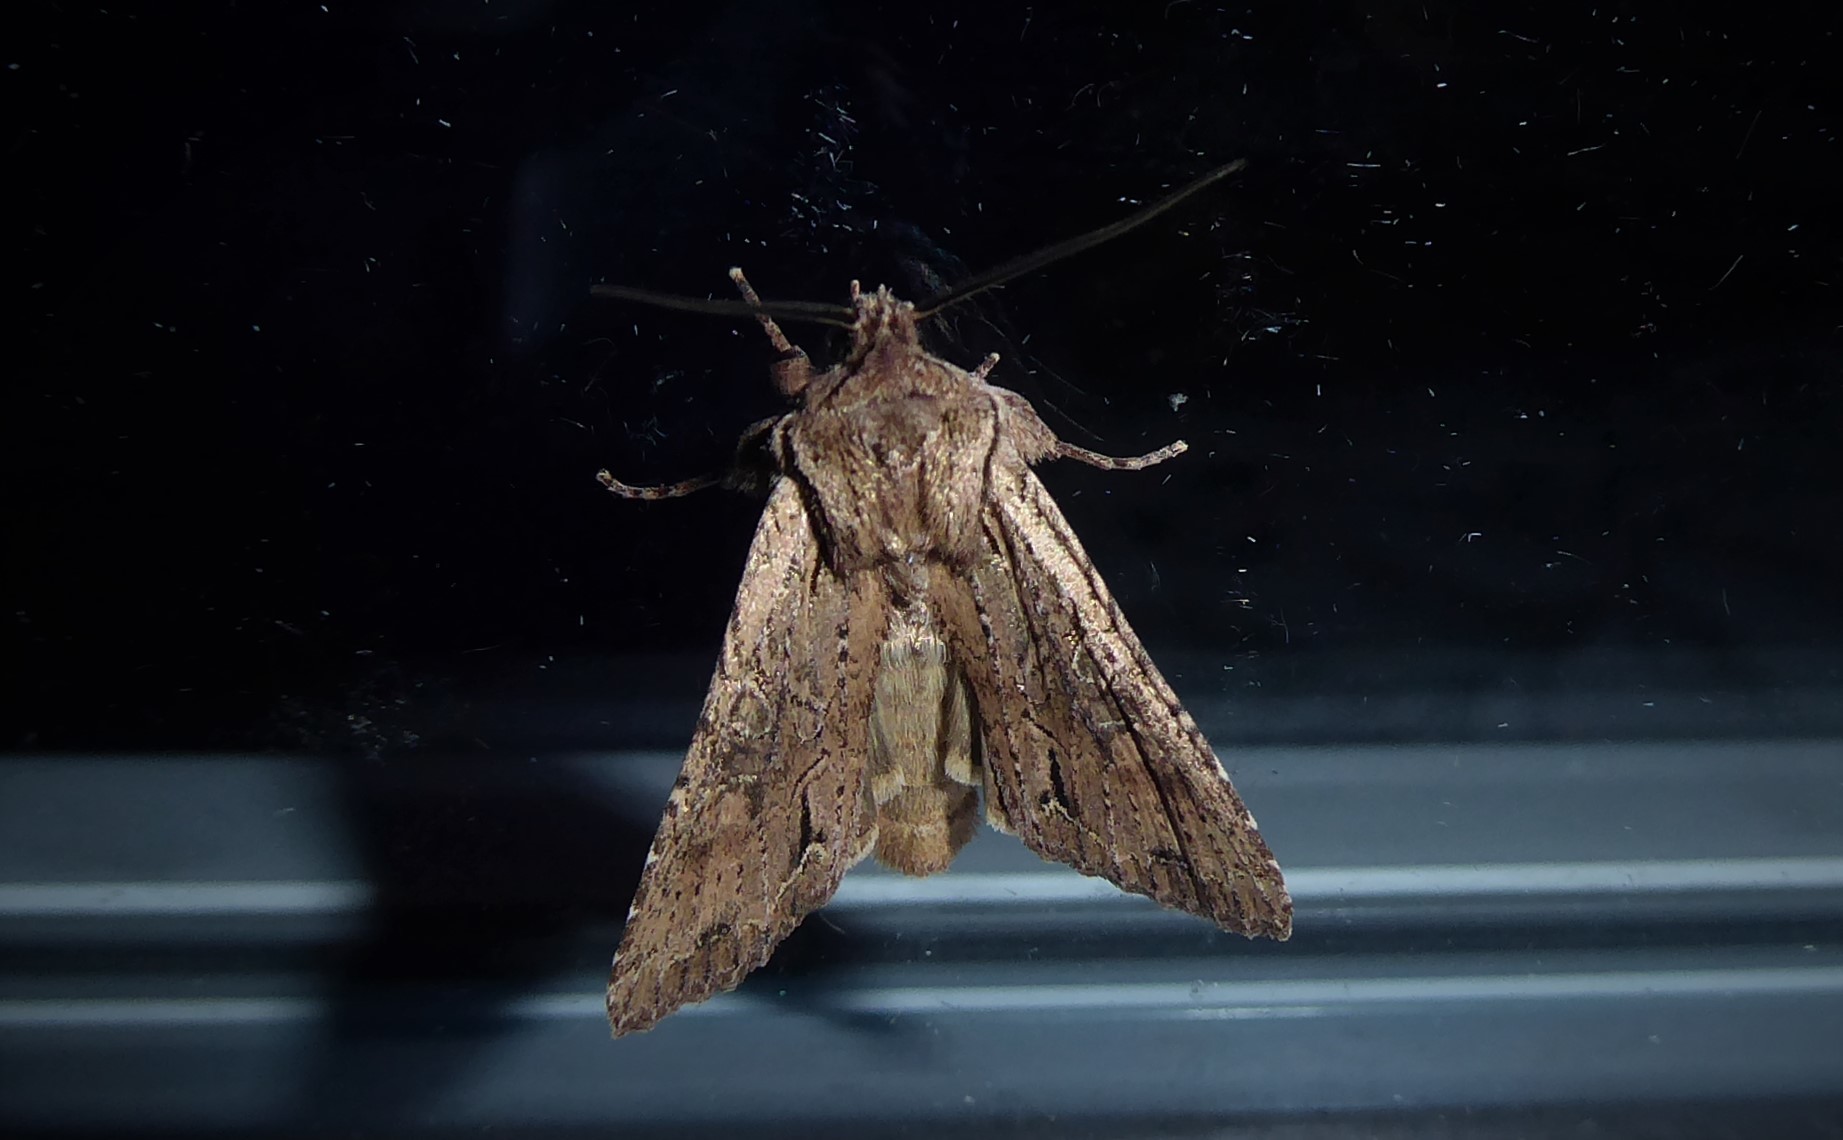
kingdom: Animalia
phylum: Arthropoda
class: Insecta
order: Lepidoptera
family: Noctuidae
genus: Ichneutica
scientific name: Ichneutica
